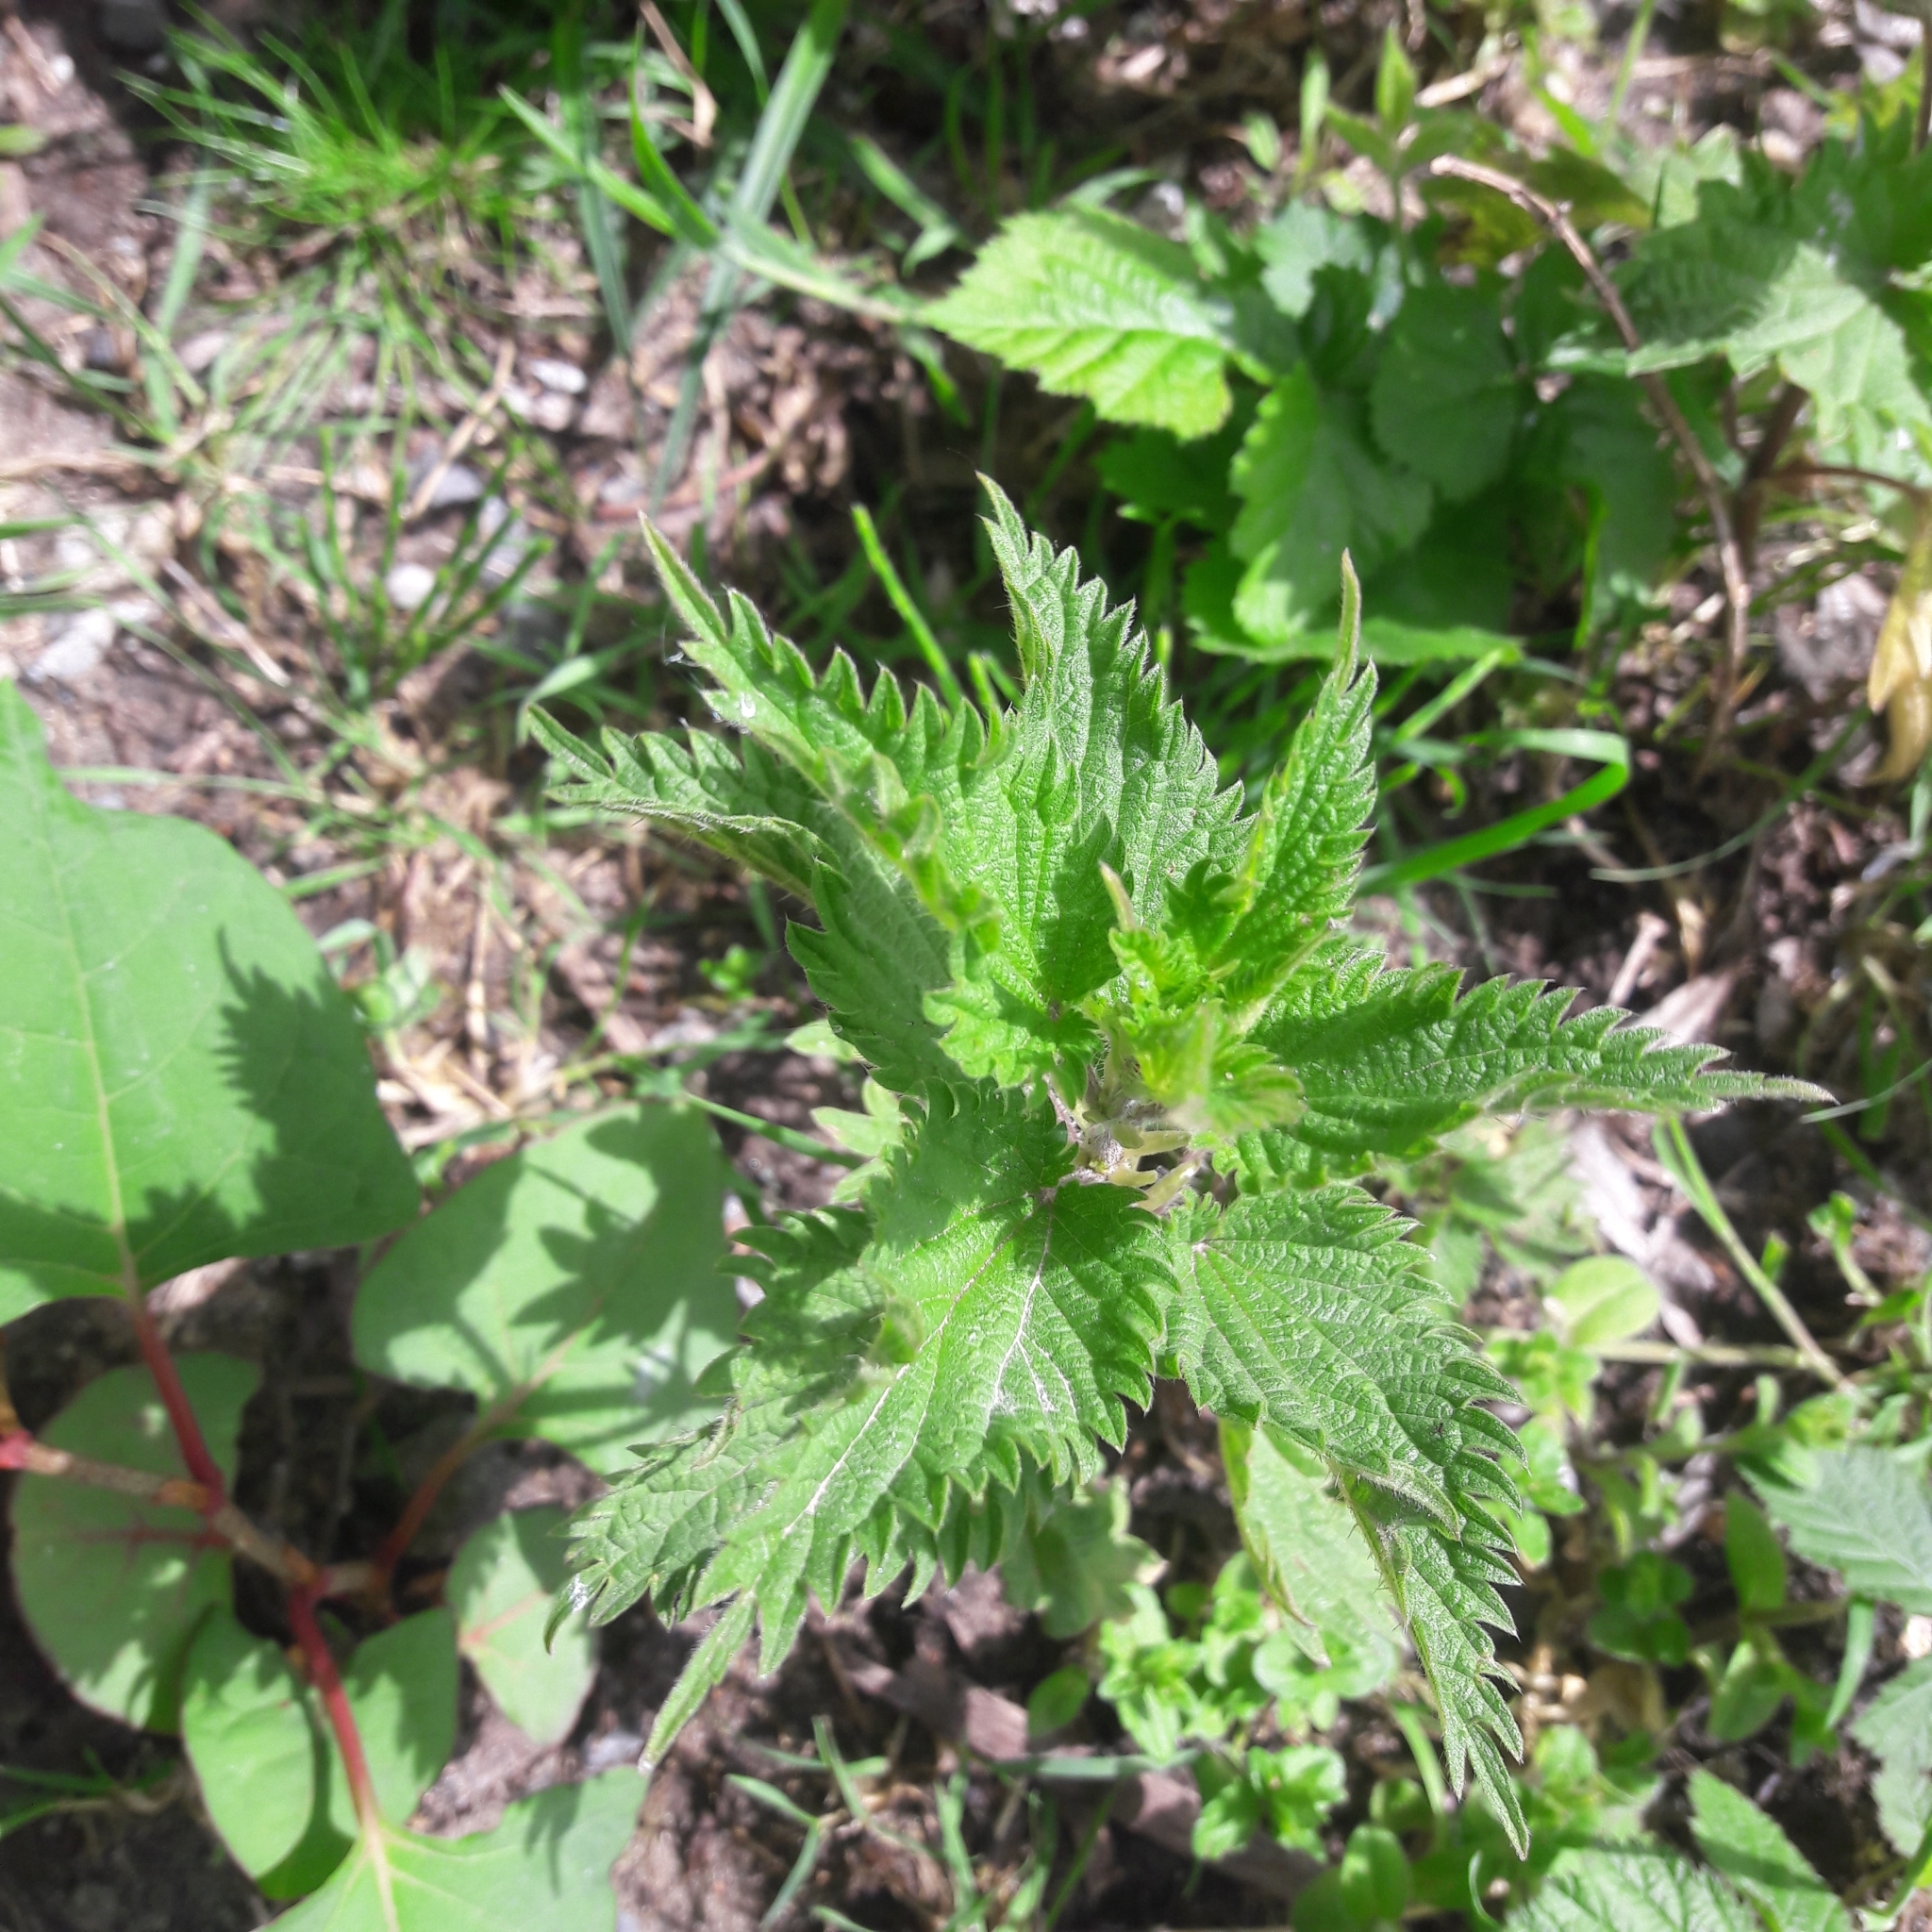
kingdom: Plantae
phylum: Tracheophyta
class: Magnoliopsida
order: Rosales
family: Urticaceae
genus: Urtica
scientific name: Urtica dioica
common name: Common nettle
